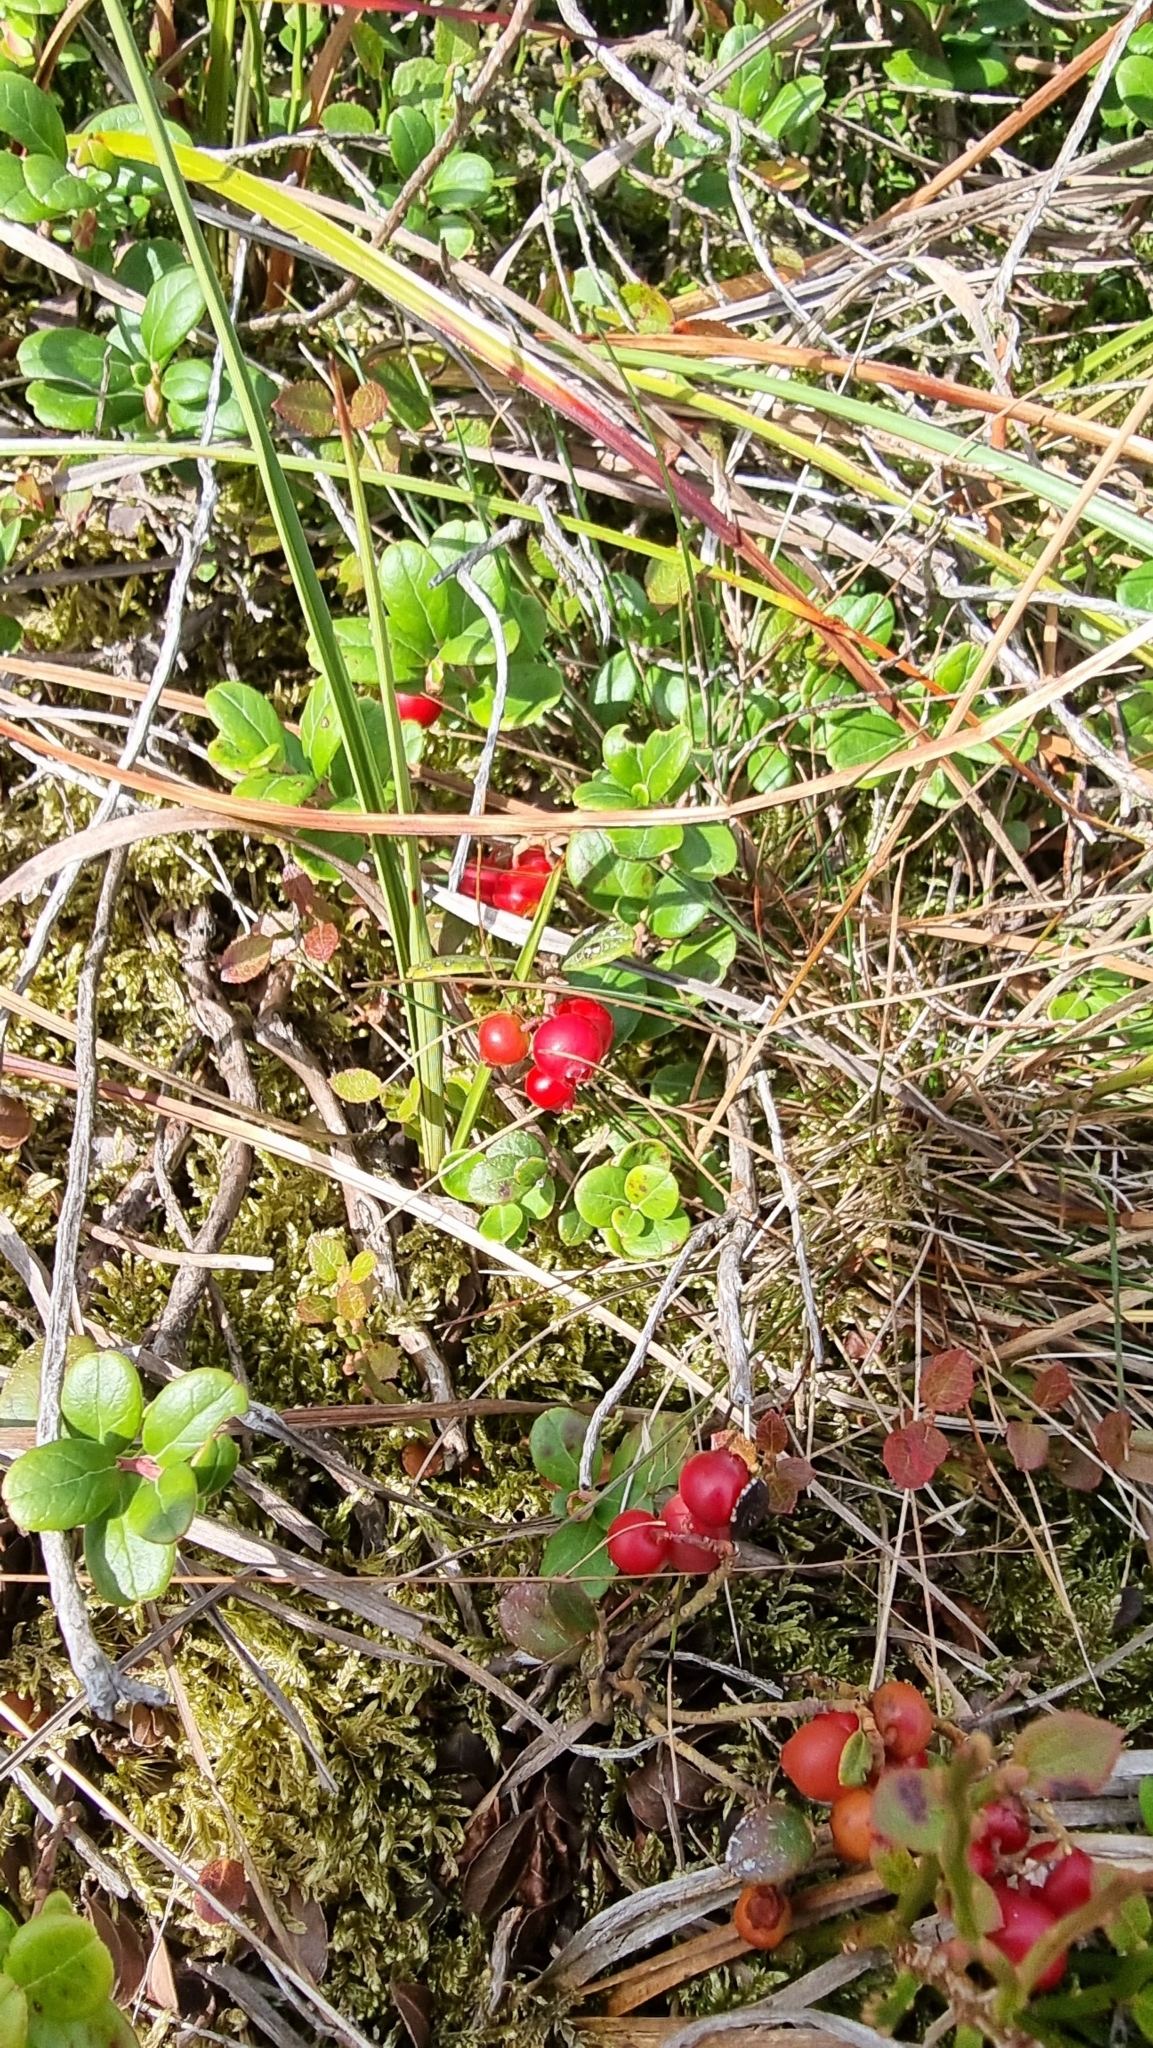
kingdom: Plantae
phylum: Tracheophyta
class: Magnoliopsida
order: Ericales
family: Ericaceae
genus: Vaccinium
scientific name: Vaccinium vitis-idaea
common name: Cowberry
